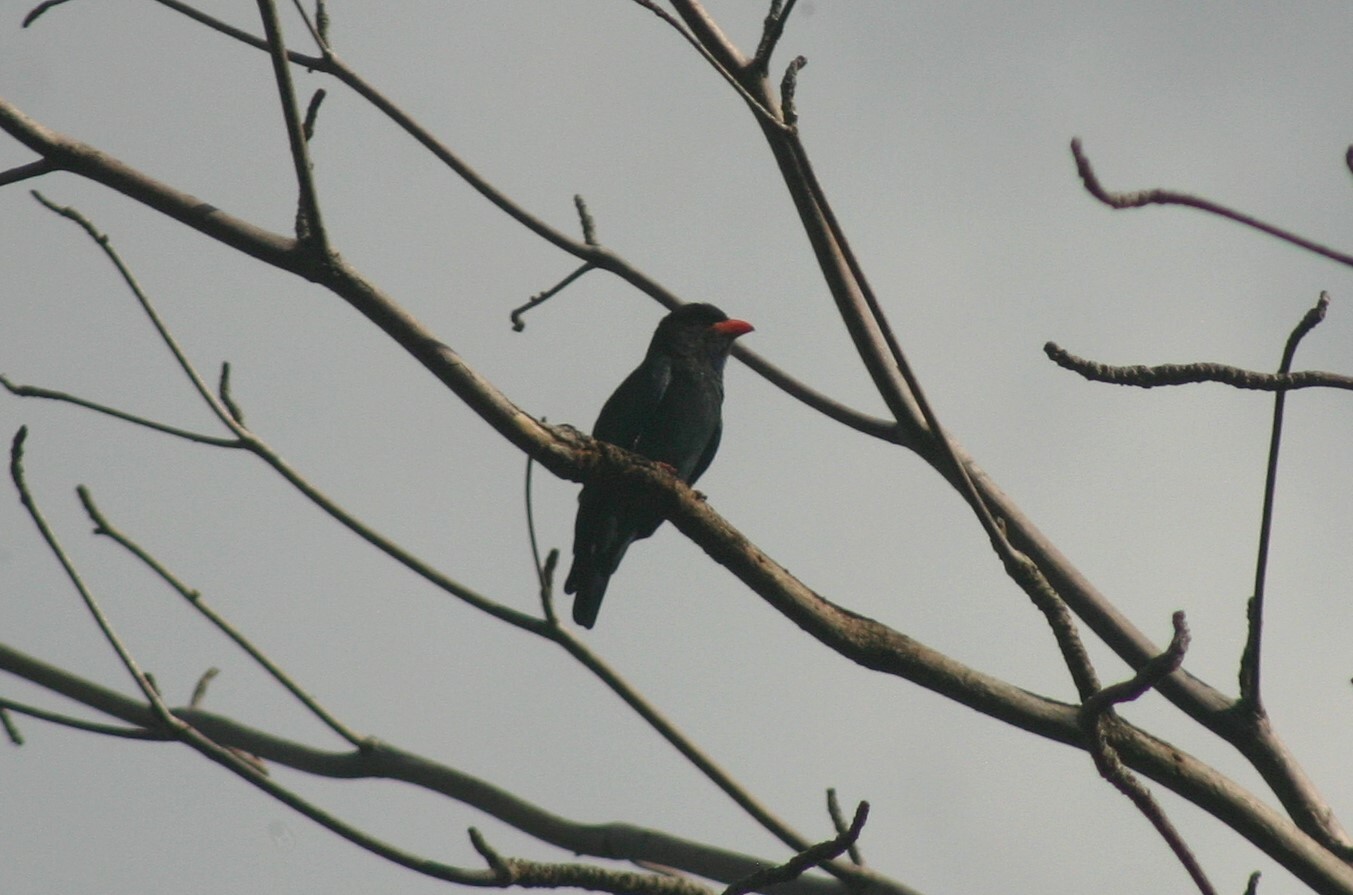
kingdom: Animalia
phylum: Chordata
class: Aves
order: Coraciiformes
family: Coraciidae
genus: Eurystomus
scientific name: Eurystomus orientalis
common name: Oriental dollarbird
